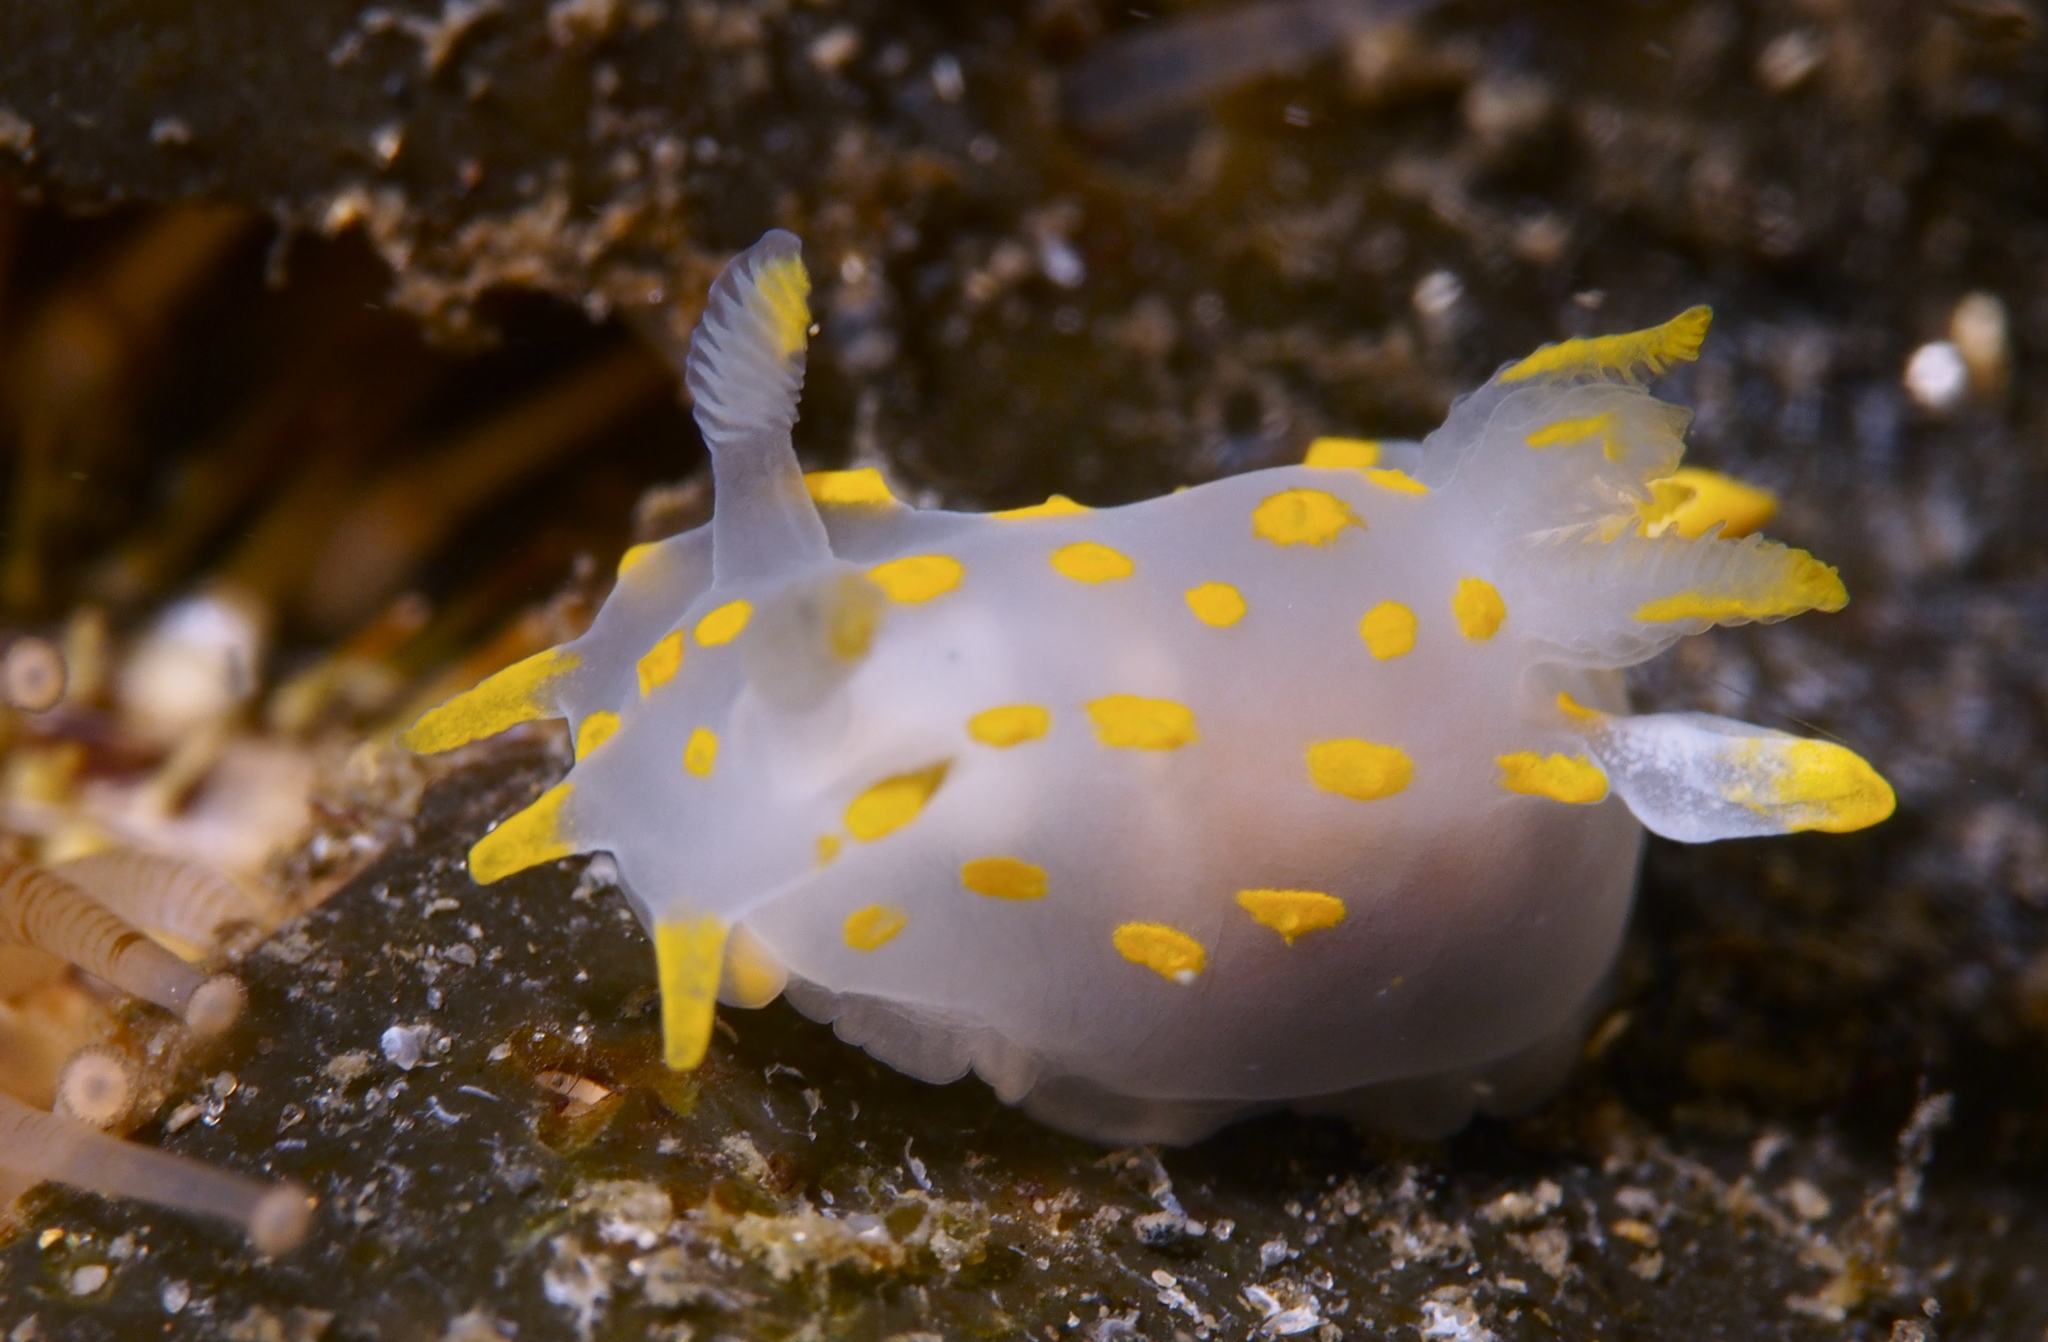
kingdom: Animalia
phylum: Mollusca
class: Gastropoda
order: Nudibranchia
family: Polyceridae
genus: Polycera
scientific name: Polycera quadrilineata
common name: Four-striped polycera
